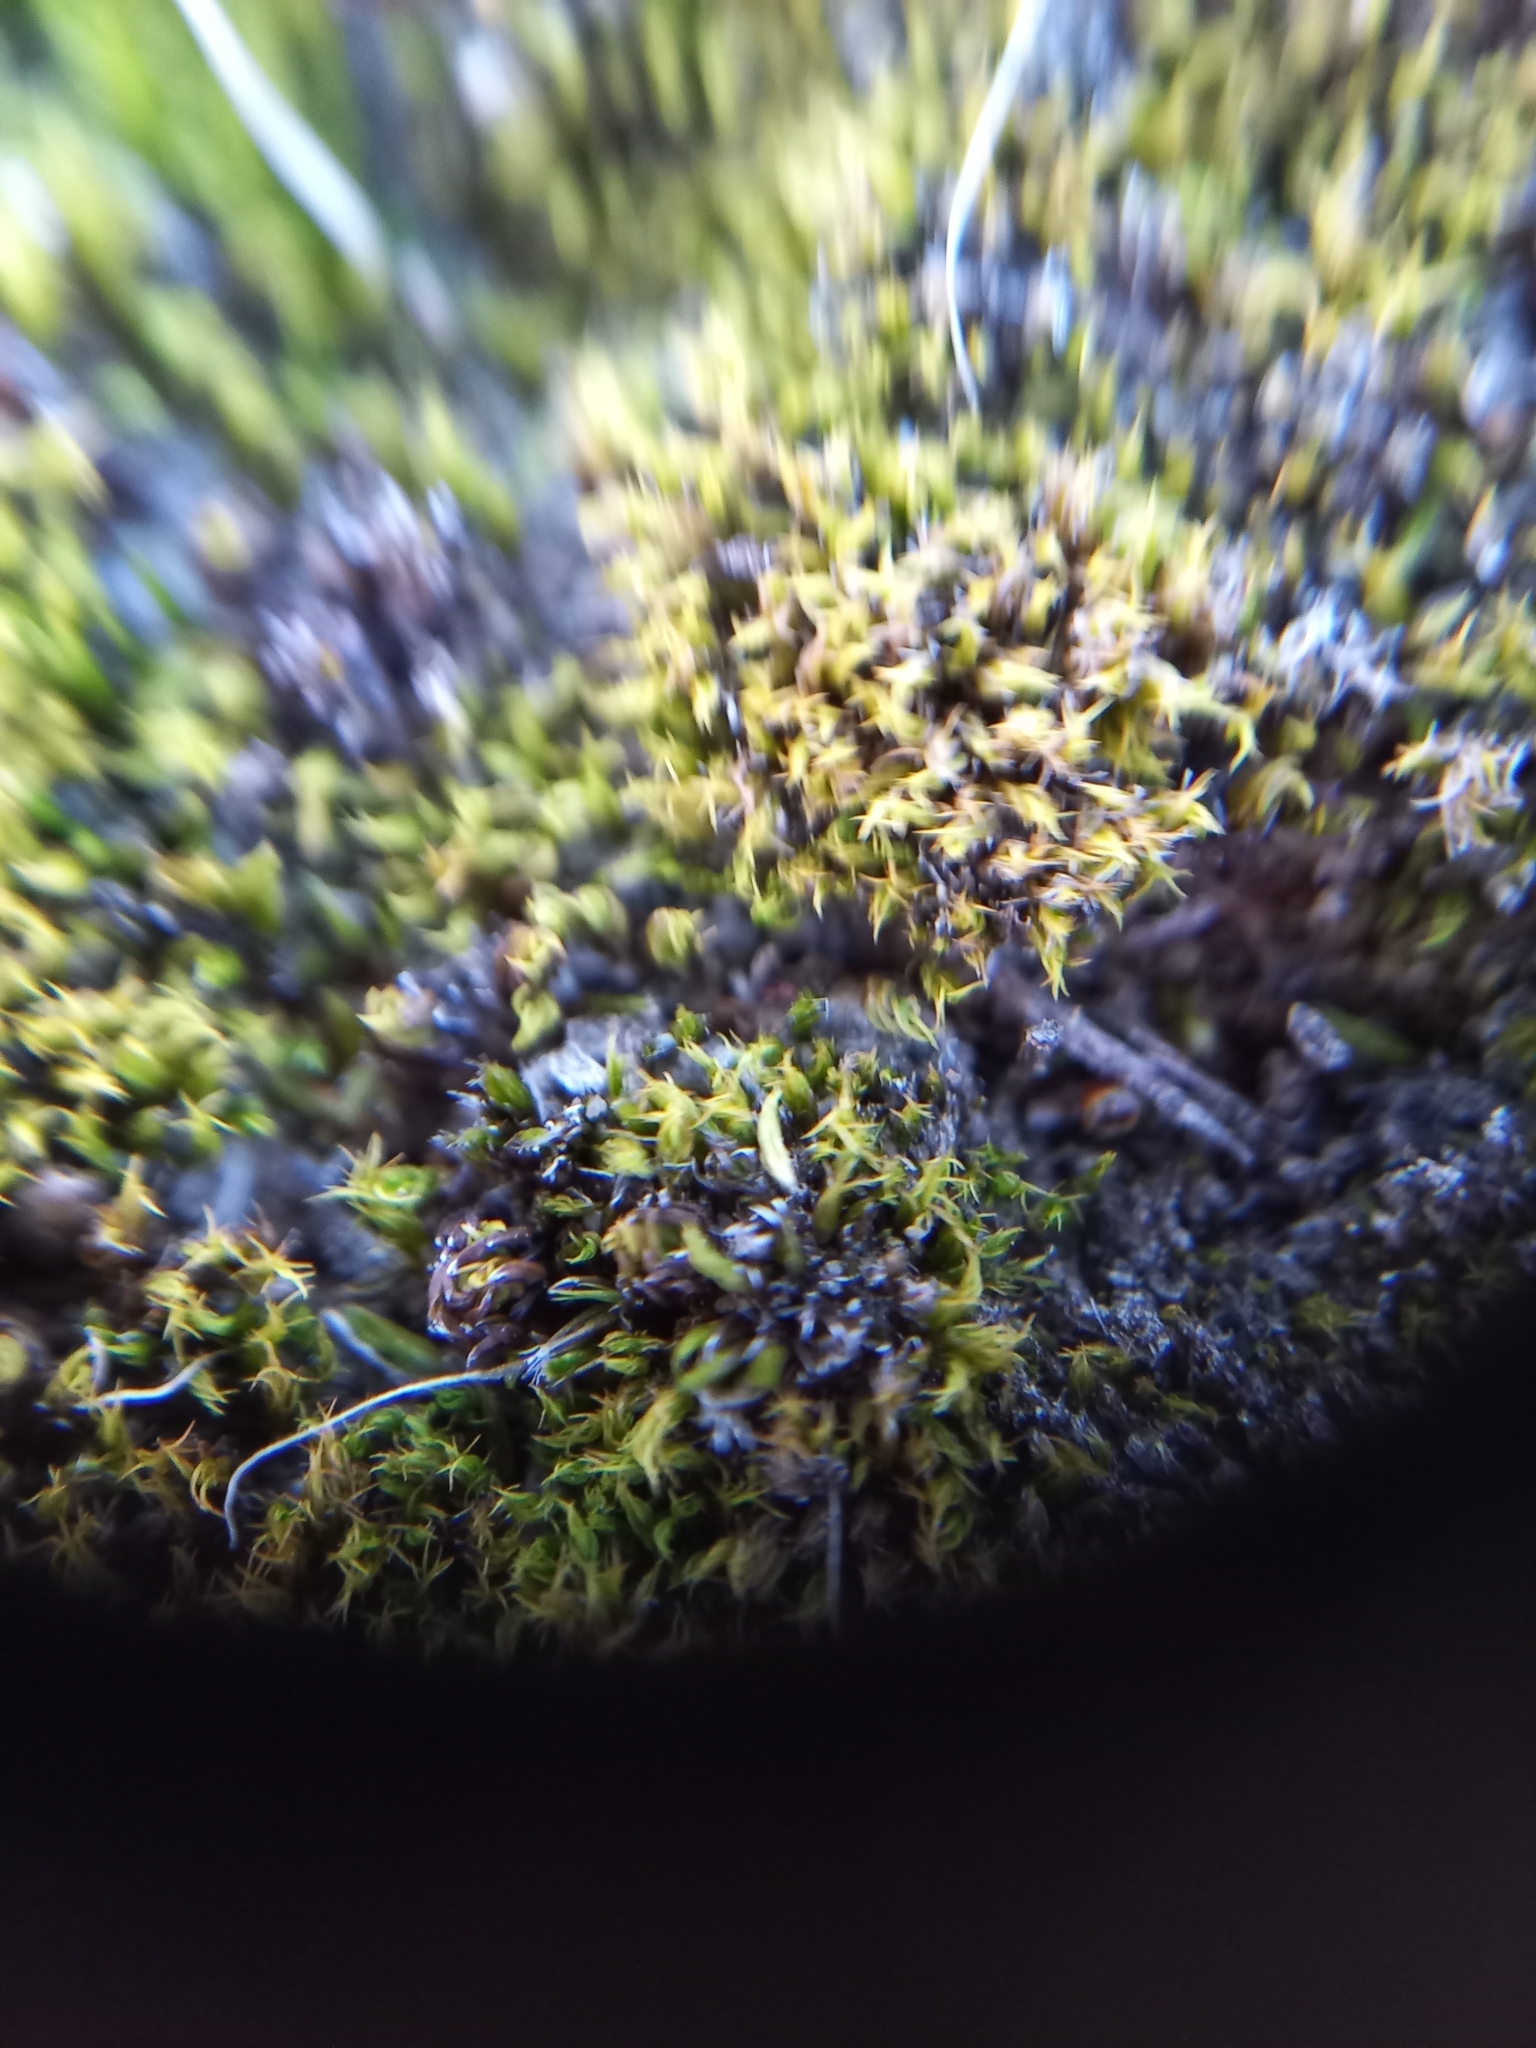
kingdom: Plantae
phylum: Bryophyta
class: Bryopsida
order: Pottiales
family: Pottiaceae
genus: Triquetrella
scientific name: Triquetrella papillata
